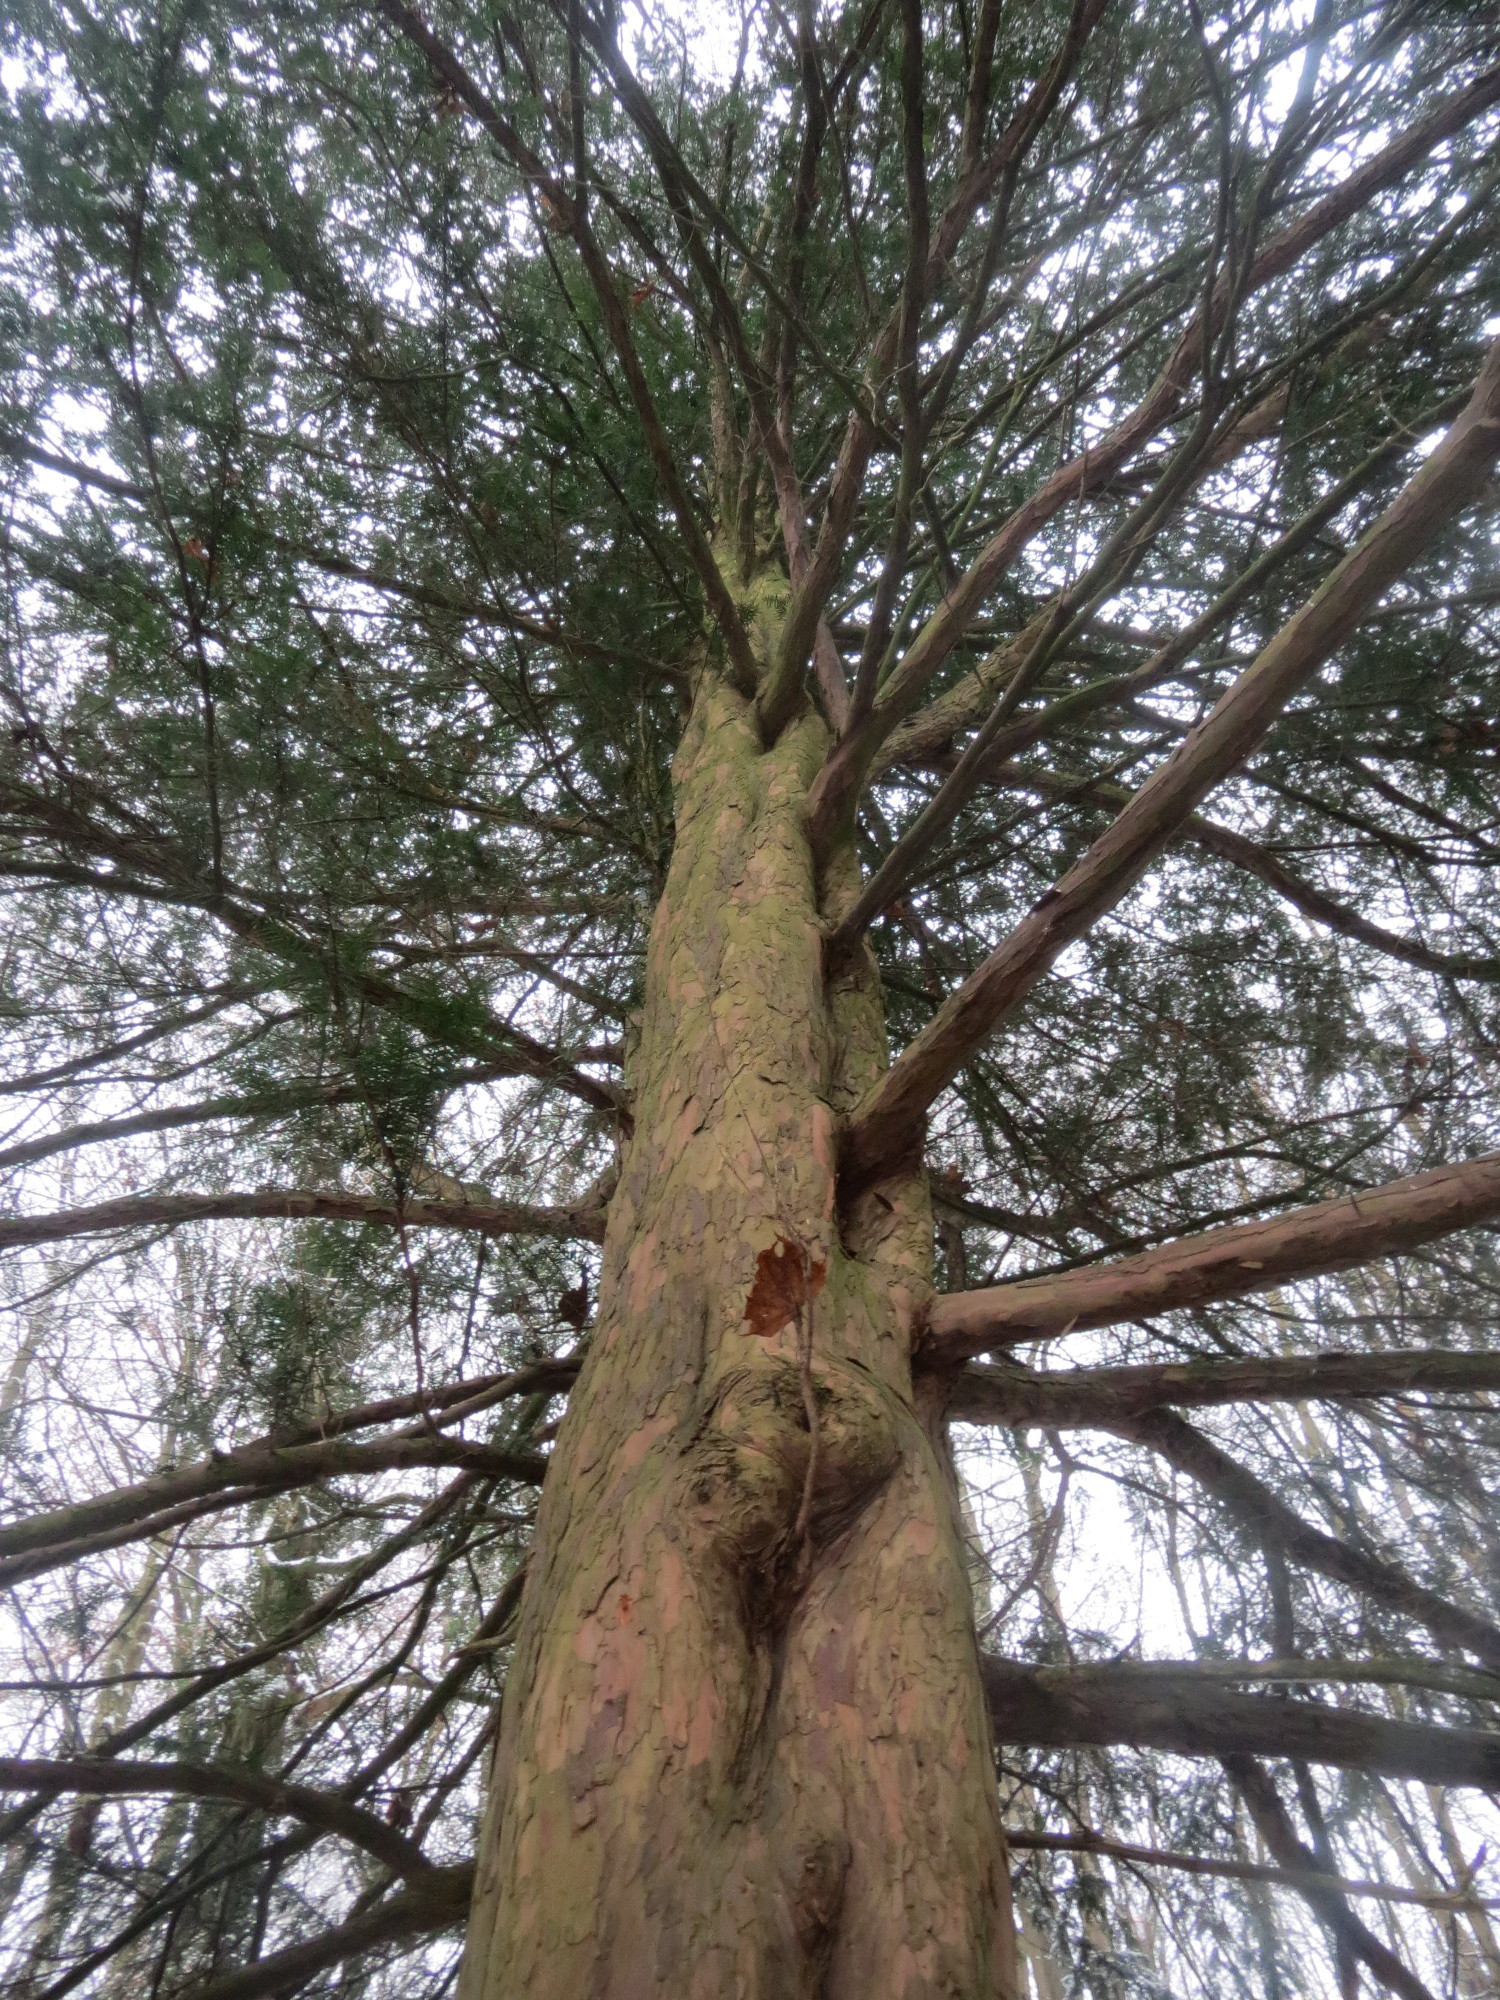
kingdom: Plantae
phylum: Tracheophyta
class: Pinopsida
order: Pinales
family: Taxaceae
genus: Taxus
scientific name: Taxus baccata
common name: Yew
